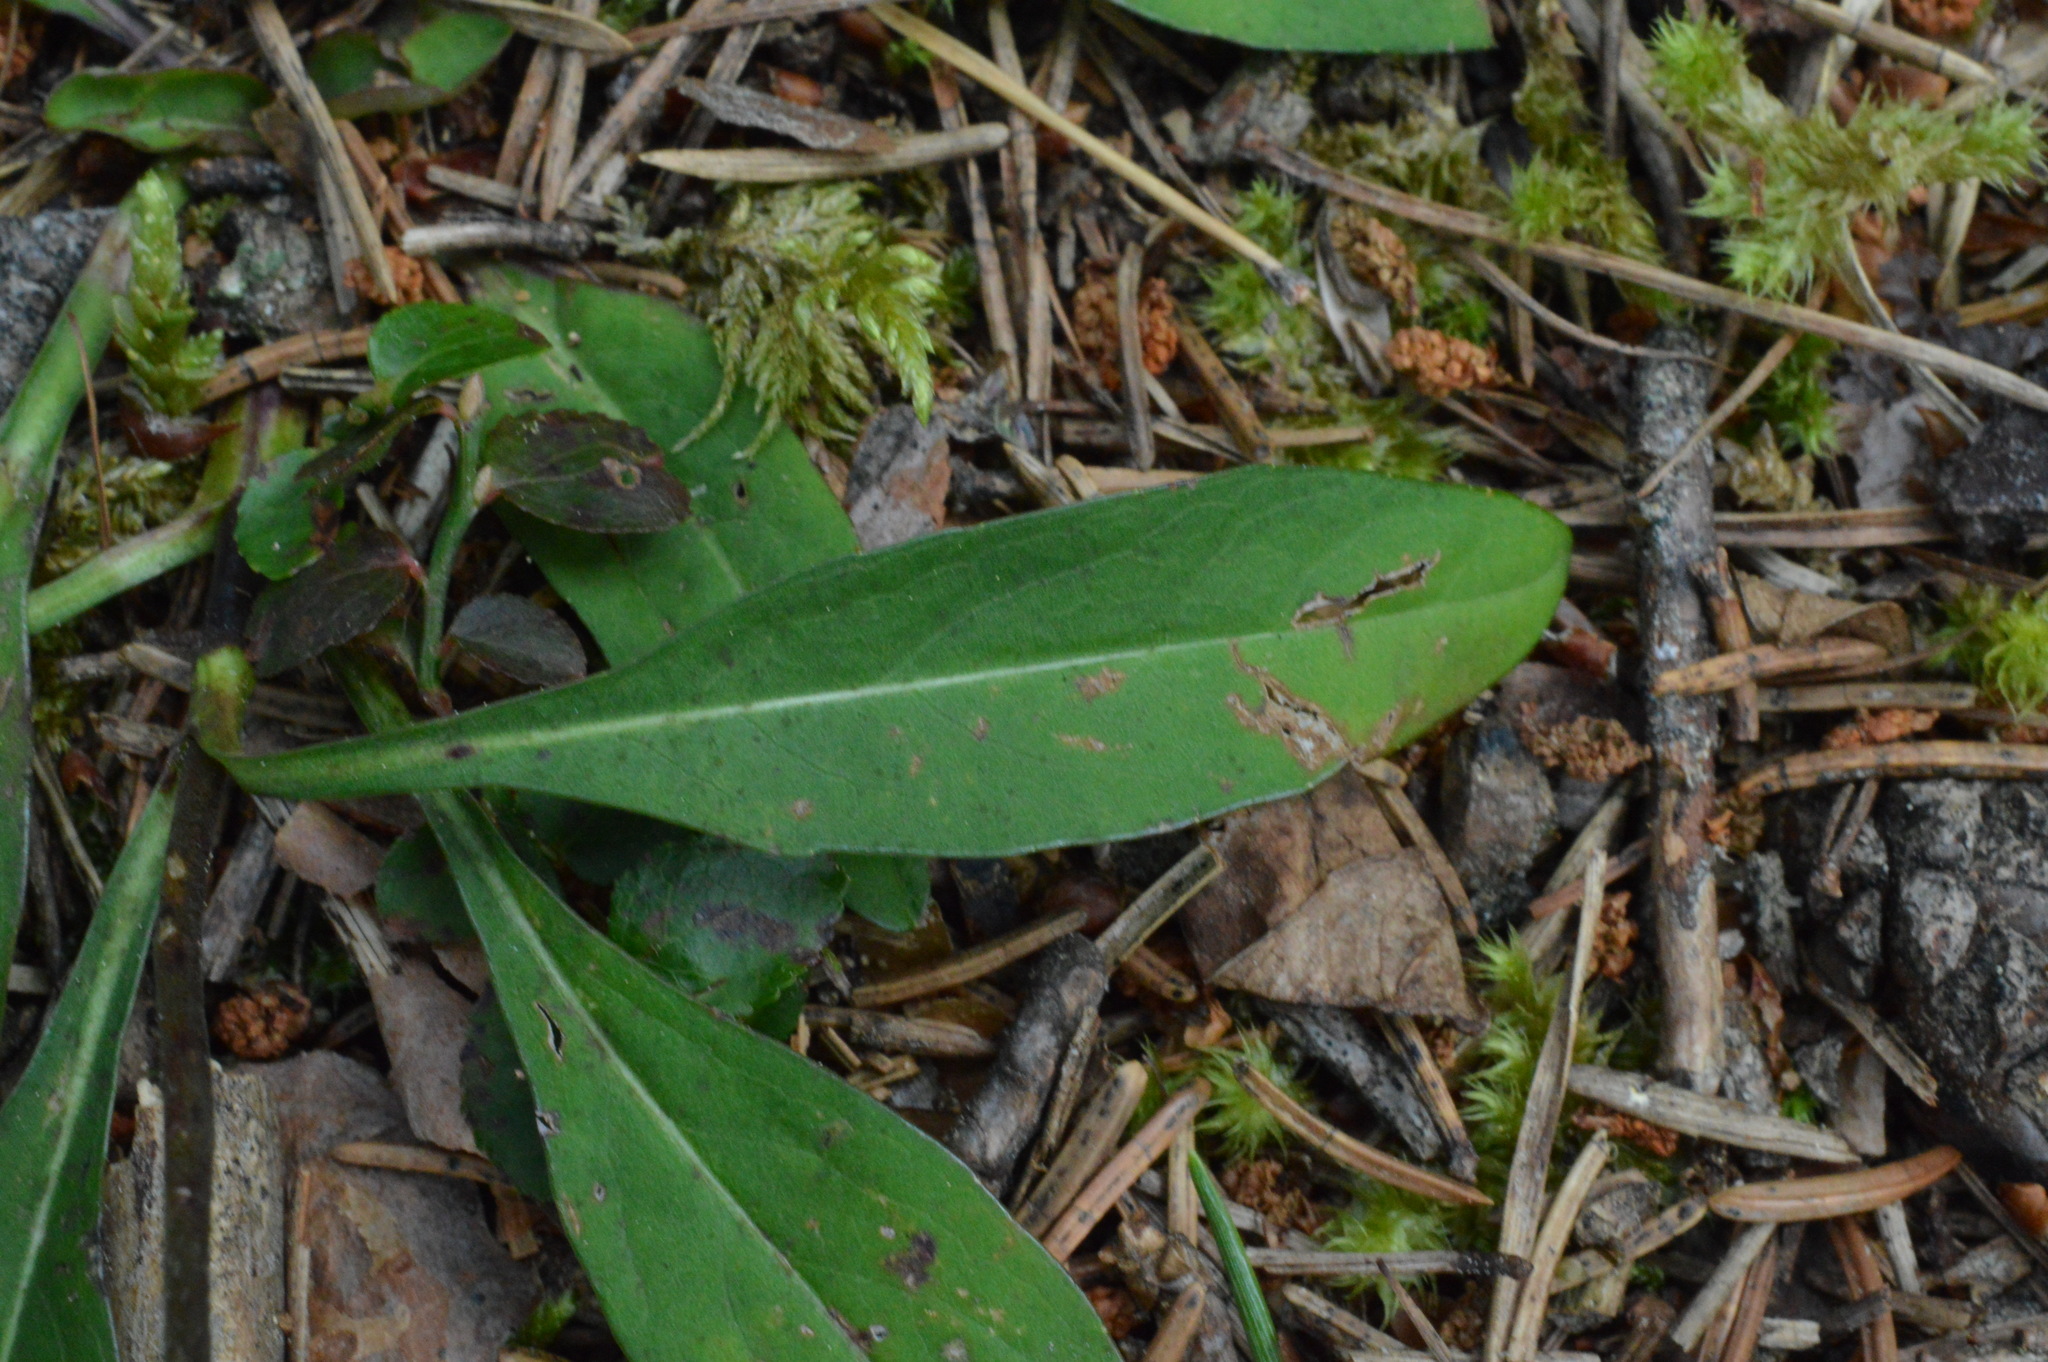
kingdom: Plantae
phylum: Tracheophyta
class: Magnoliopsida
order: Dipsacales
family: Caprifoliaceae
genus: Succisa
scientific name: Succisa pratensis
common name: Devil's-bit
